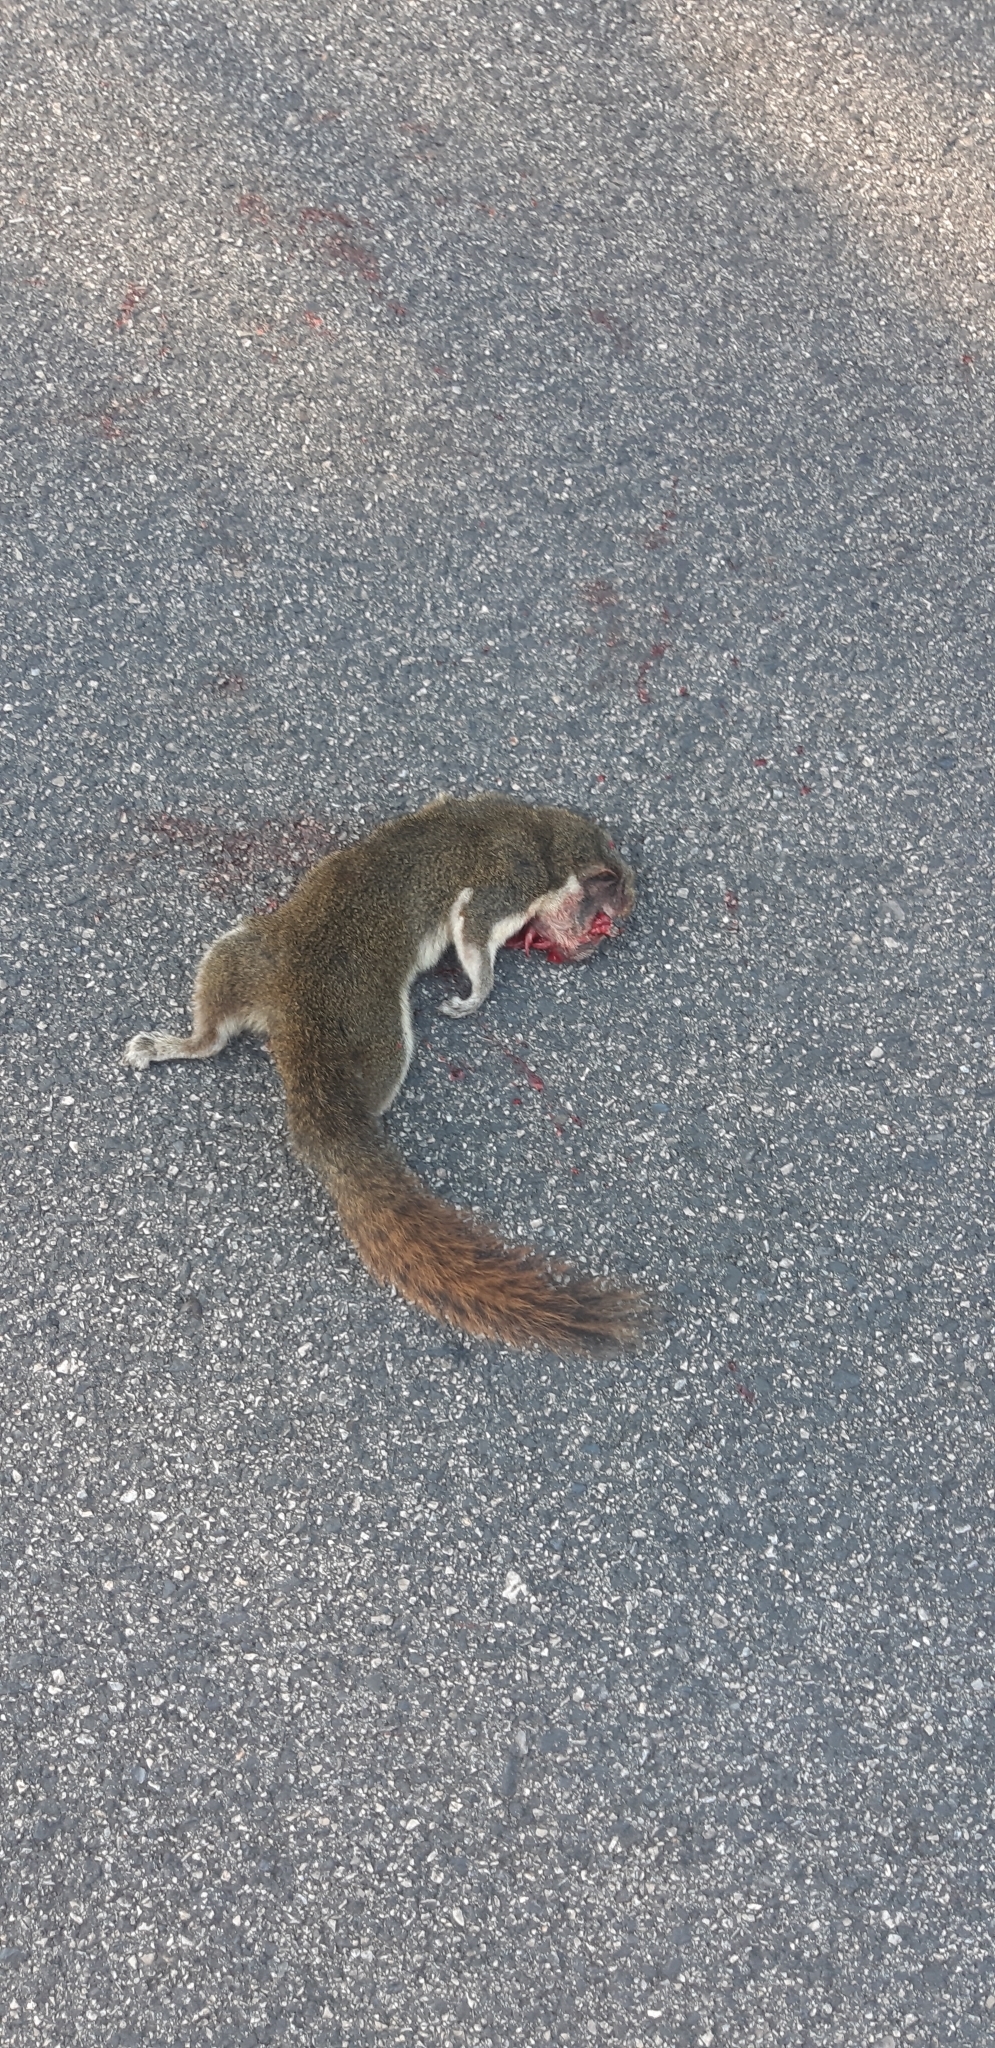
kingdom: Animalia
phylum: Chordata
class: Mammalia
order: Rodentia
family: Sciuridae
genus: Callosciurus
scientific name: Callosciurus finlaysonii
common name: Finlayson's squirrel
